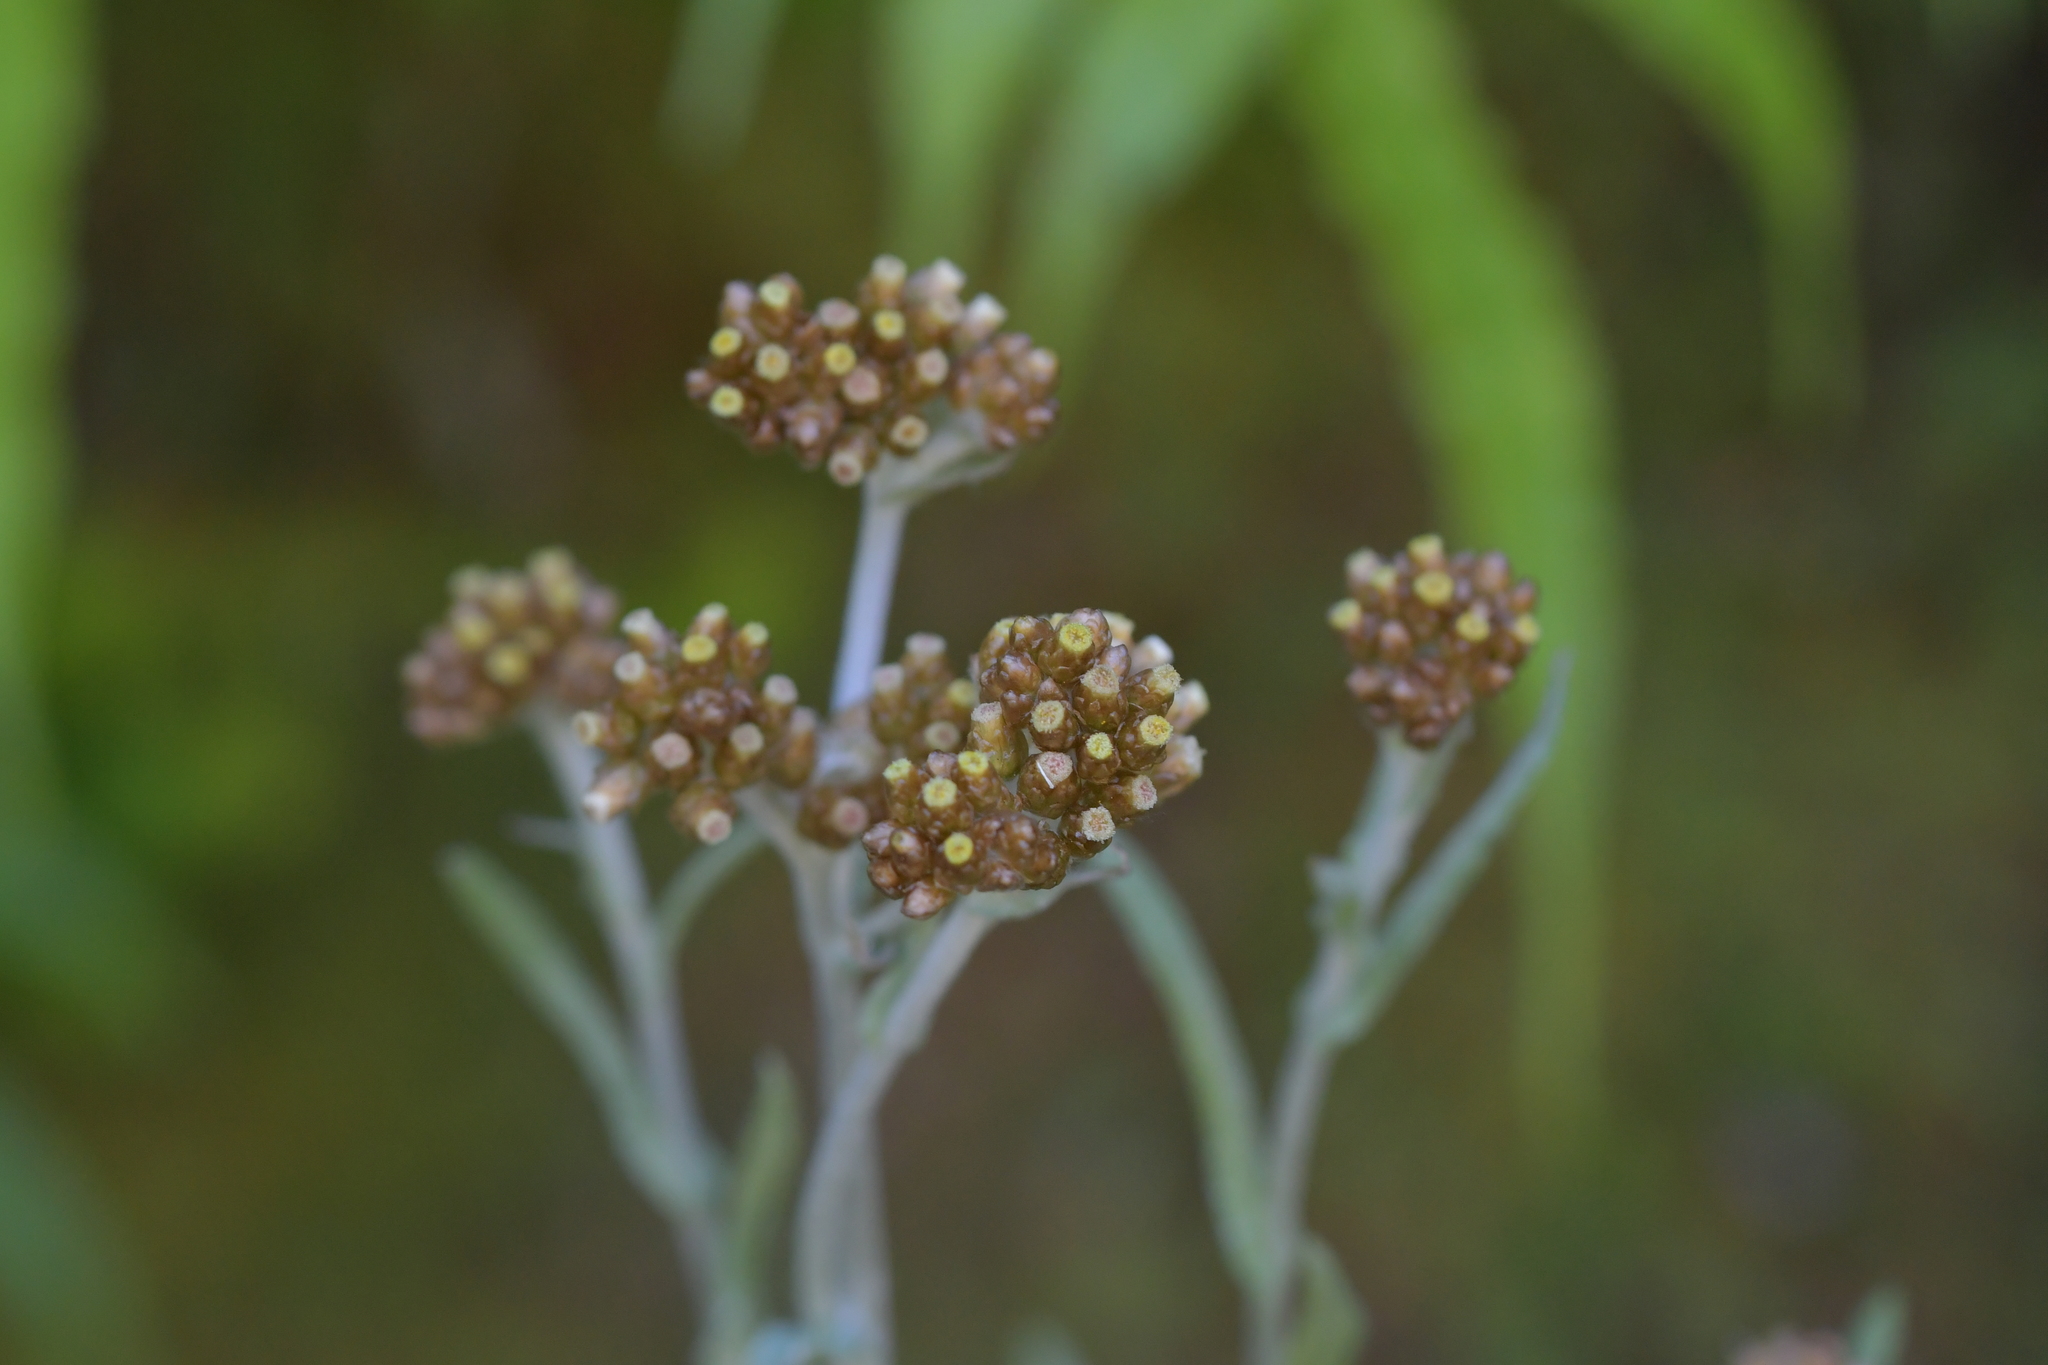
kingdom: Plantae
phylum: Tracheophyta
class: Magnoliopsida
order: Asterales
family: Asteraceae
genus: Helichrysum
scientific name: Helichrysum luteoalbum
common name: Daisy
